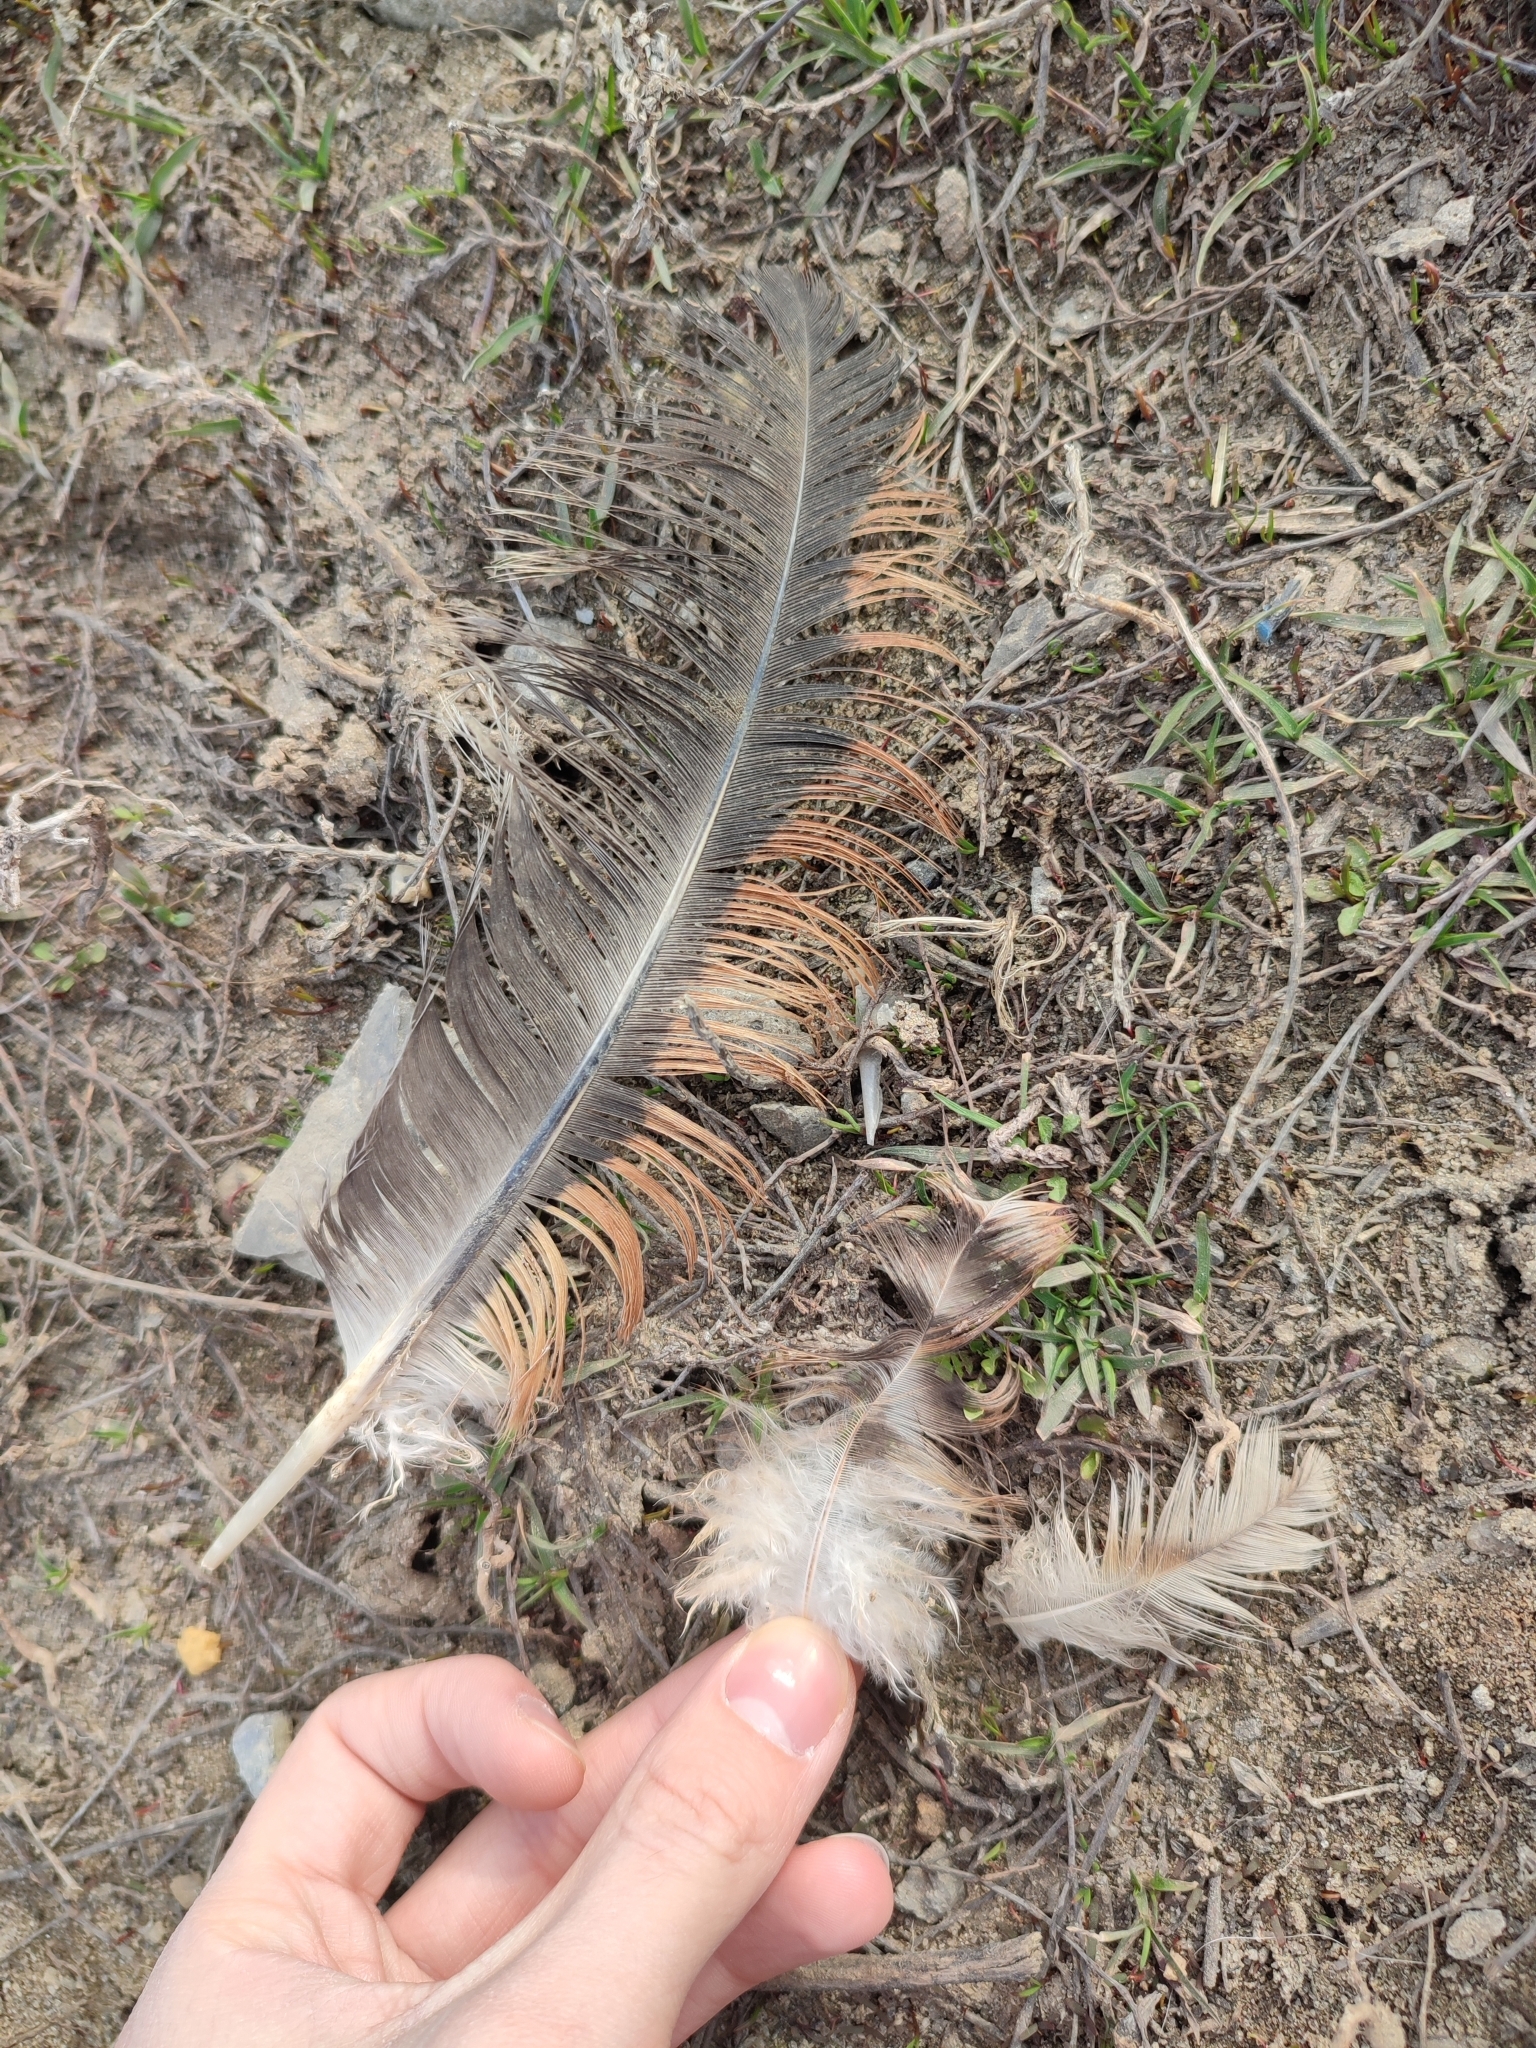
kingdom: Animalia
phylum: Chordata
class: Aves
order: Galliformes
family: Phasianidae
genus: Gallus
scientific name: Gallus gallus
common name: Red junglefowl
